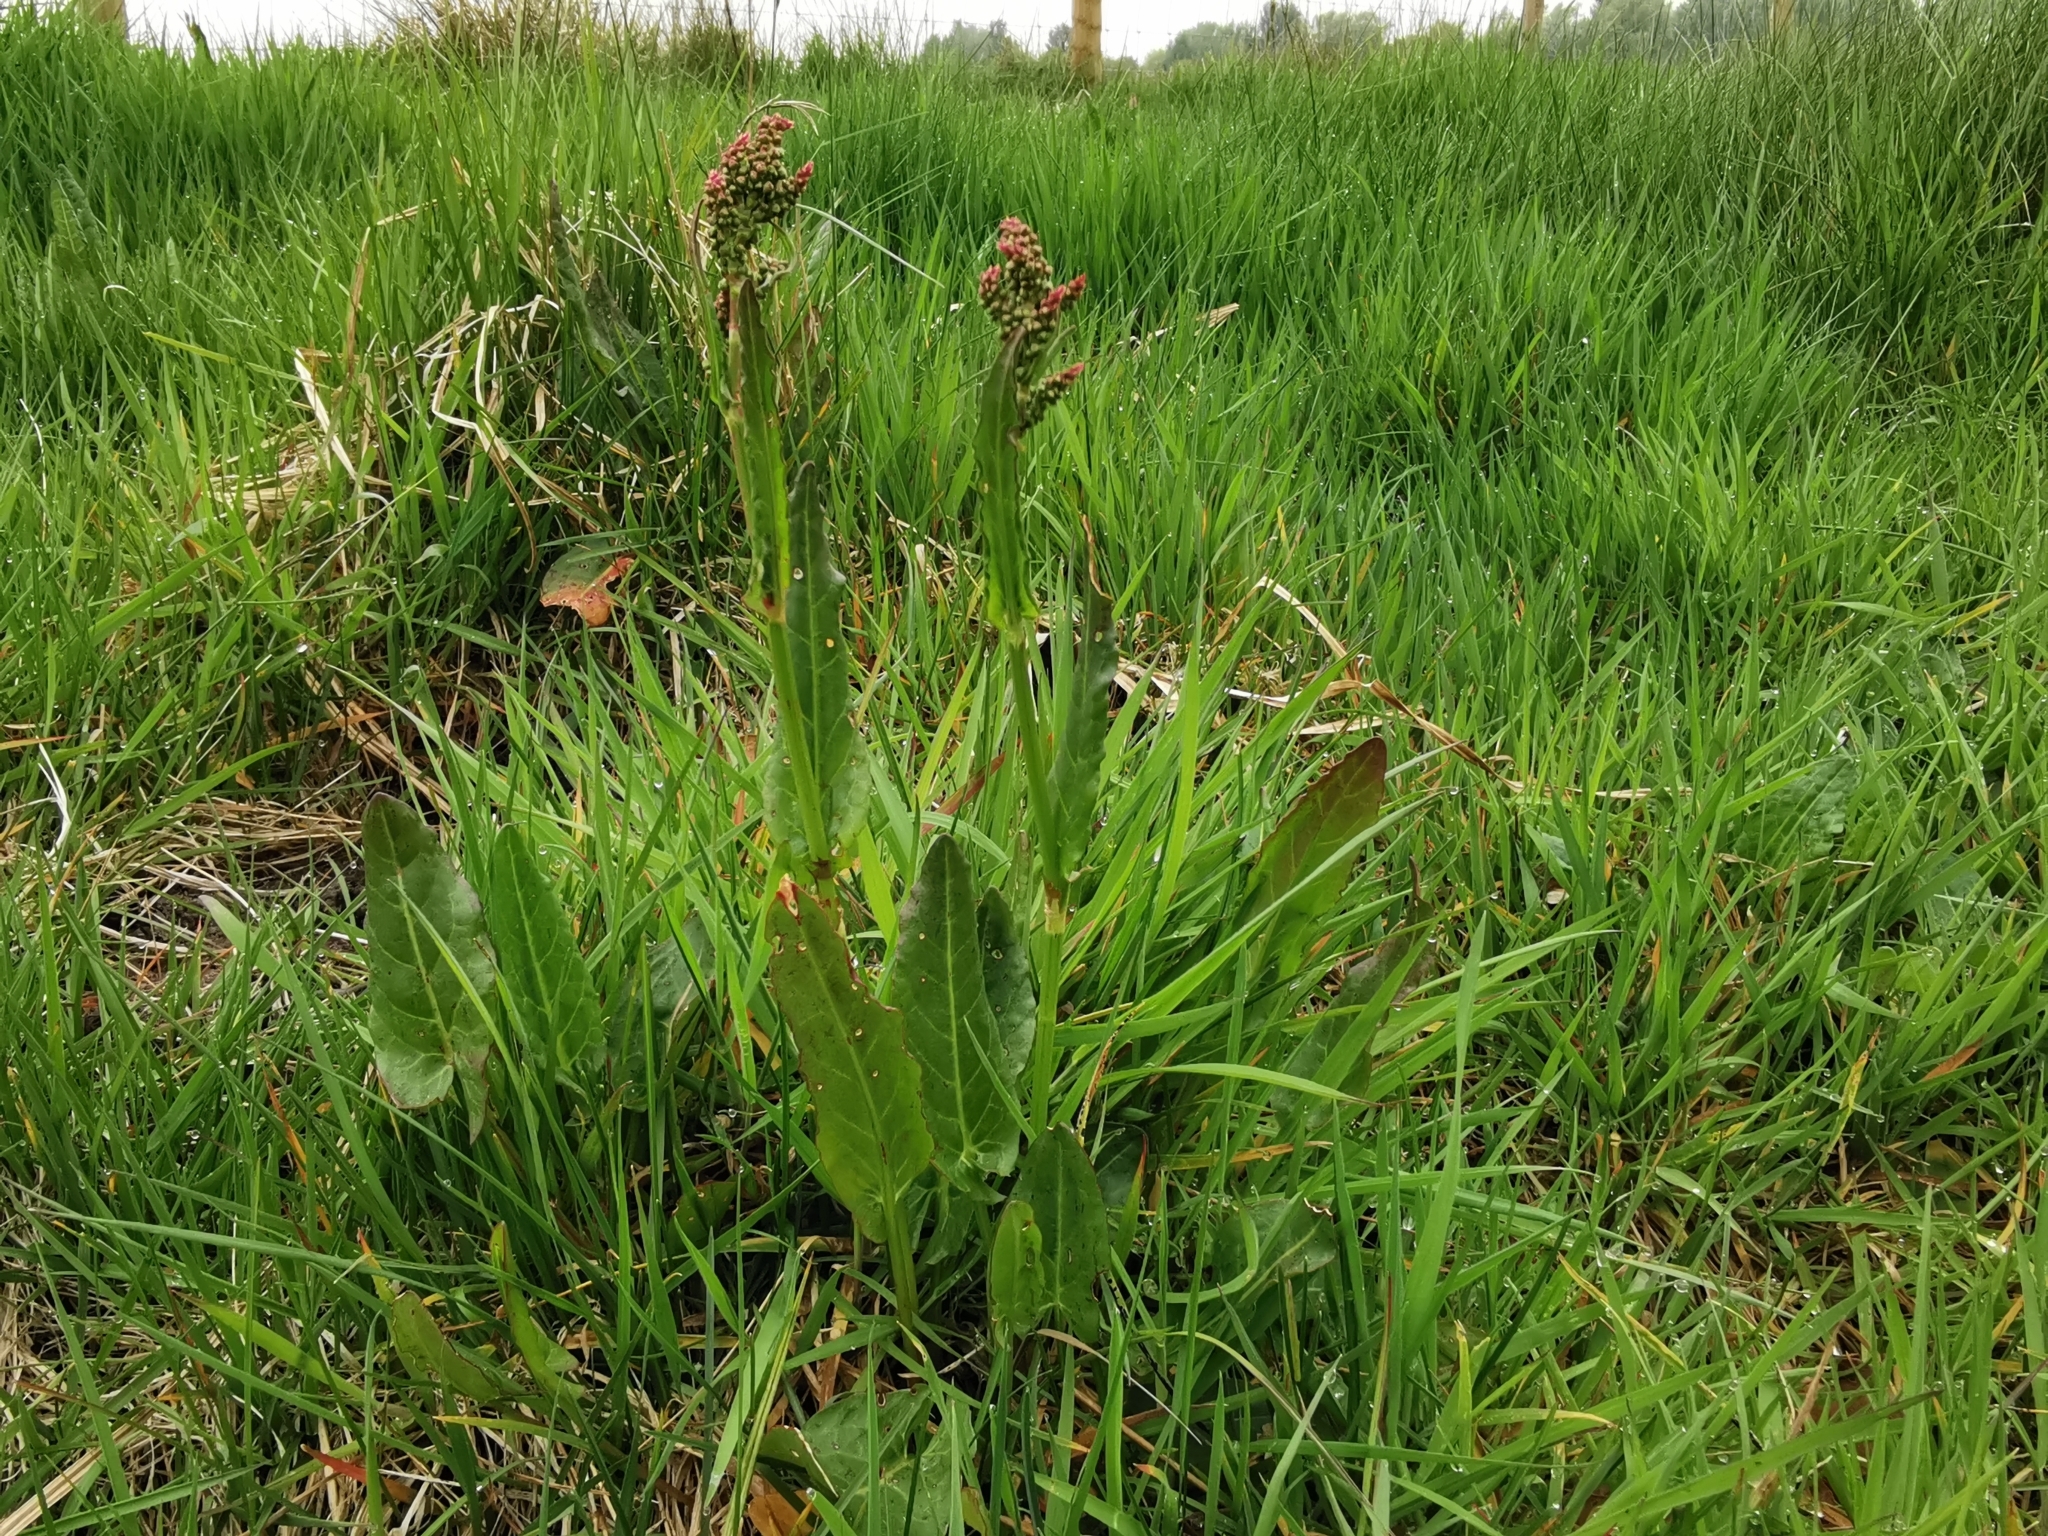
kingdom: Plantae
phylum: Tracheophyta
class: Magnoliopsida
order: Caryophyllales
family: Polygonaceae
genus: Rumex
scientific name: Rumex acetosa
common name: Garden sorrel
